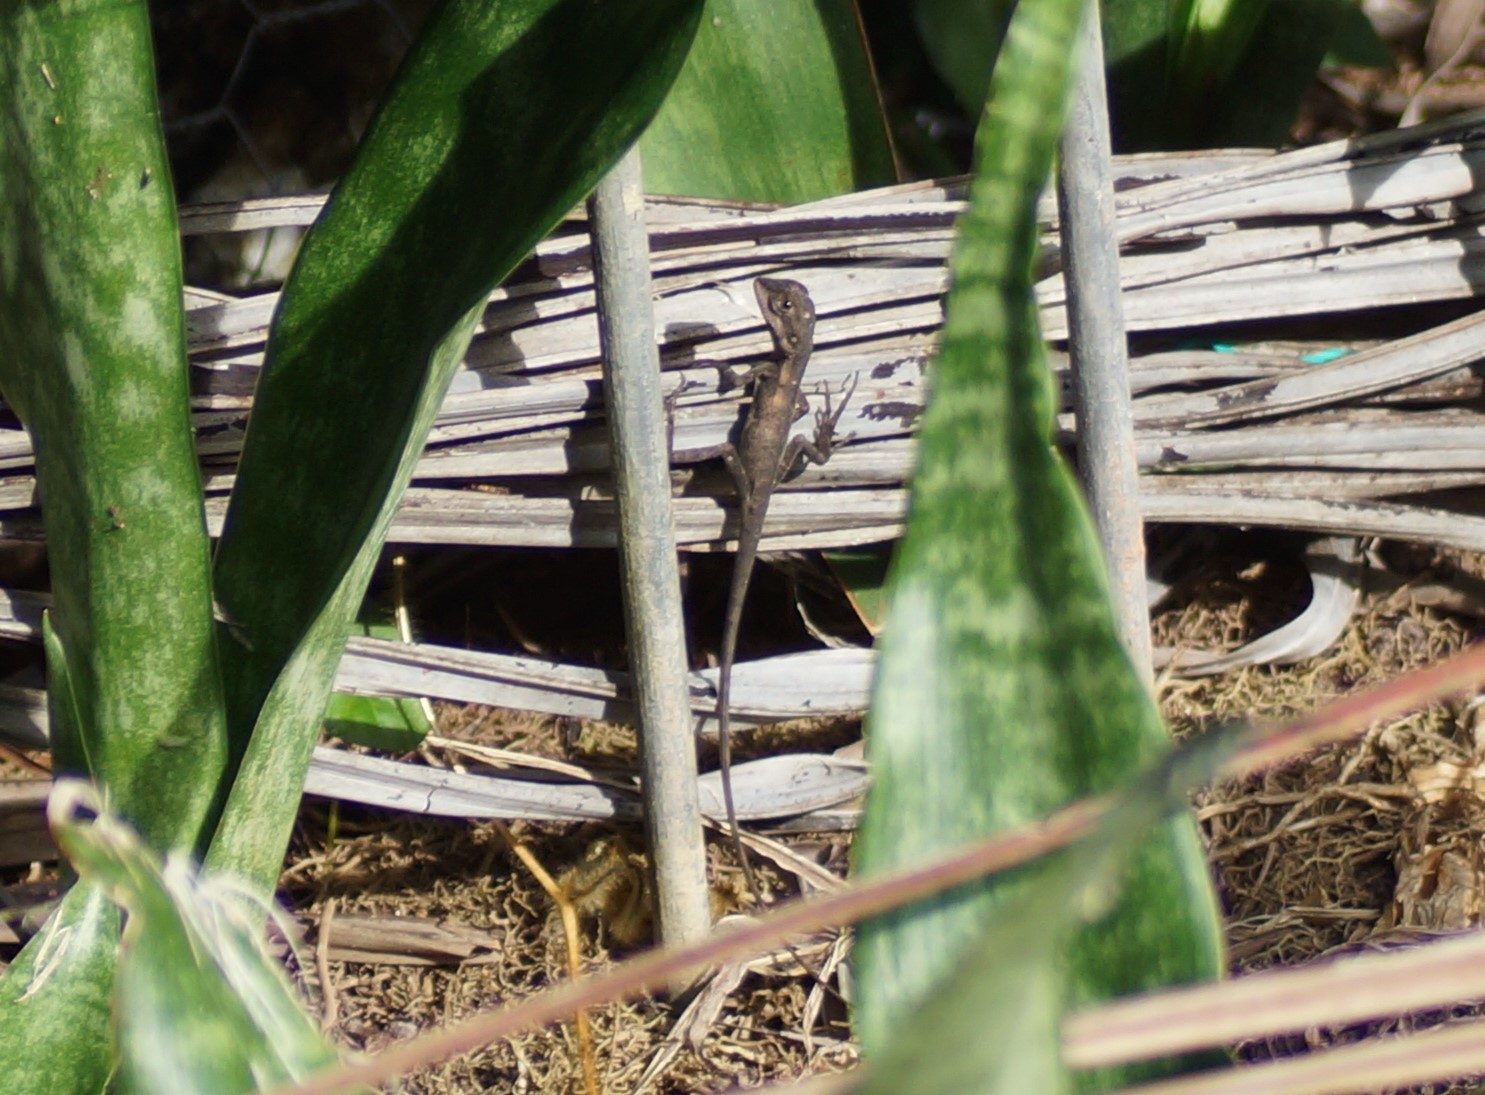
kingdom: Animalia
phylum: Chordata
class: Squamata
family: Agamidae
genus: Tropicagama
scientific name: Tropicagama temporalis
